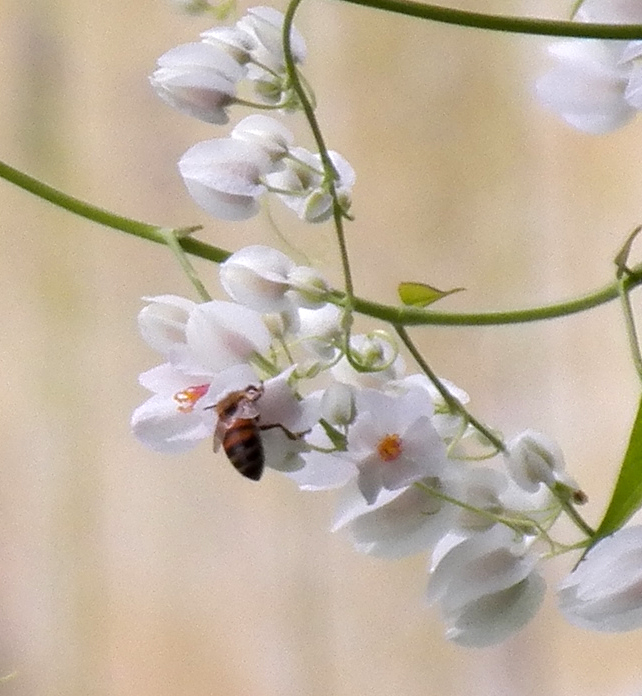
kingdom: Animalia
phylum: Arthropoda
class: Insecta
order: Hymenoptera
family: Apidae
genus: Apis
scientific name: Apis mellifera
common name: Honey bee
